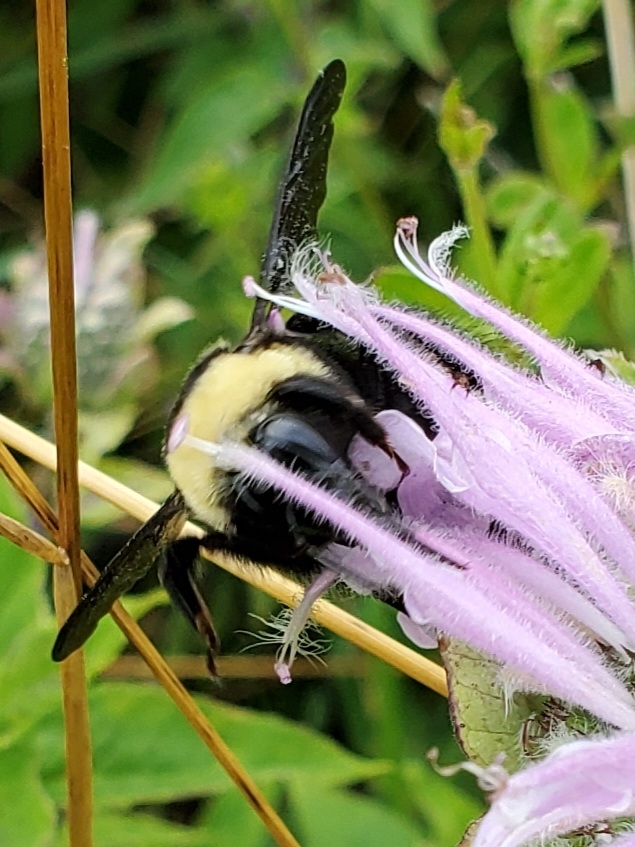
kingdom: Animalia
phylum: Arthropoda
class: Insecta
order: Hymenoptera
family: Apidae
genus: Bombus
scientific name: Bombus auricomus
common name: Black and gold bumble bee
